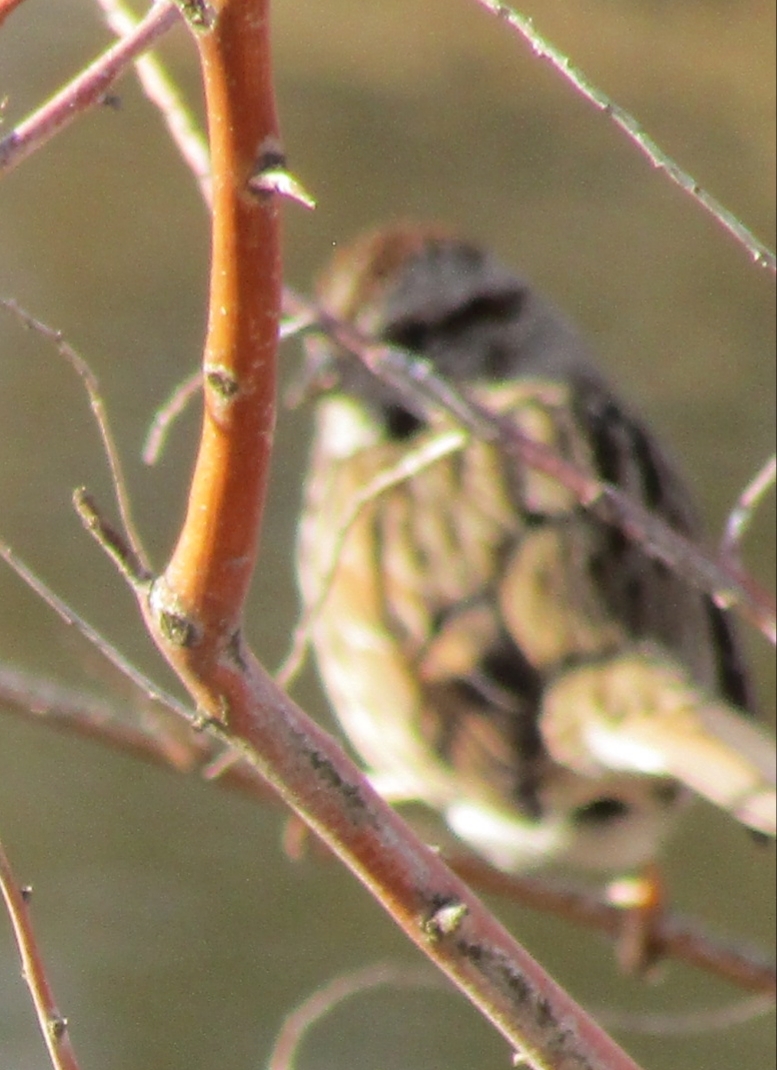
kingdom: Animalia
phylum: Chordata
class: Aves
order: Passeriformes
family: Passerellidae
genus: Melospiza
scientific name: Melospiza melodia
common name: Song sparrow
